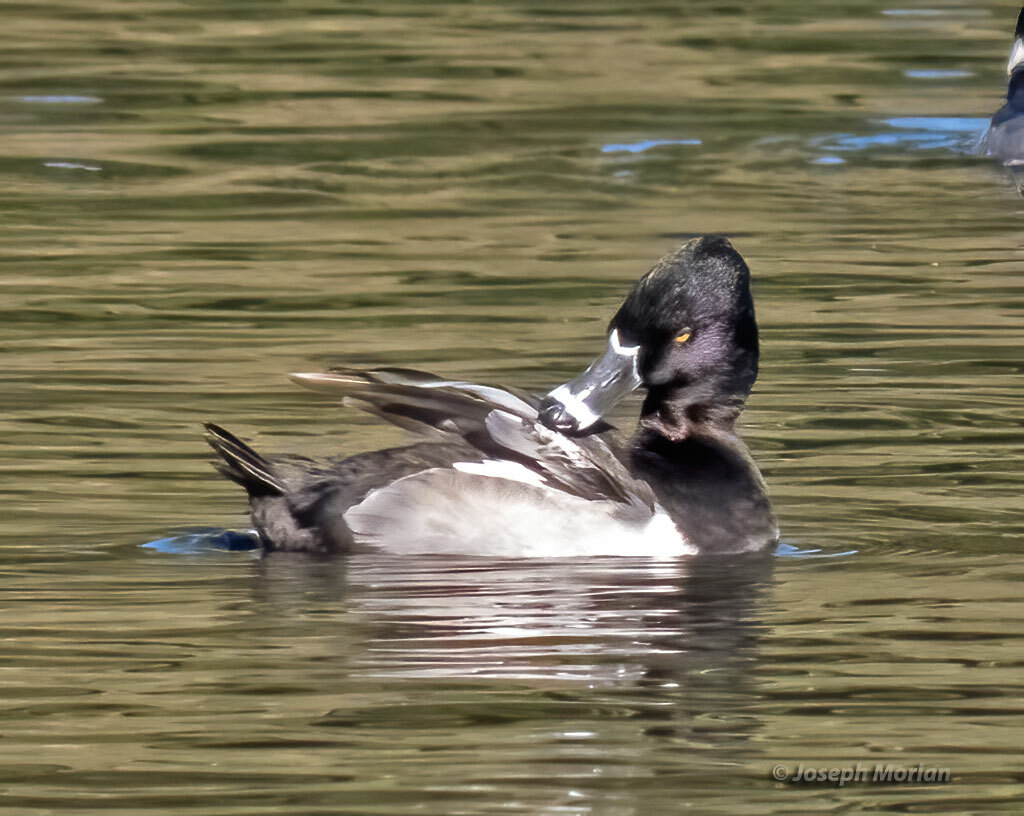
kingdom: Animalia
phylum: Chordata
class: Aves
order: Anseriformes
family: Anatidae
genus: Aythya
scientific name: Aythya collaris
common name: Ring-necked duck
